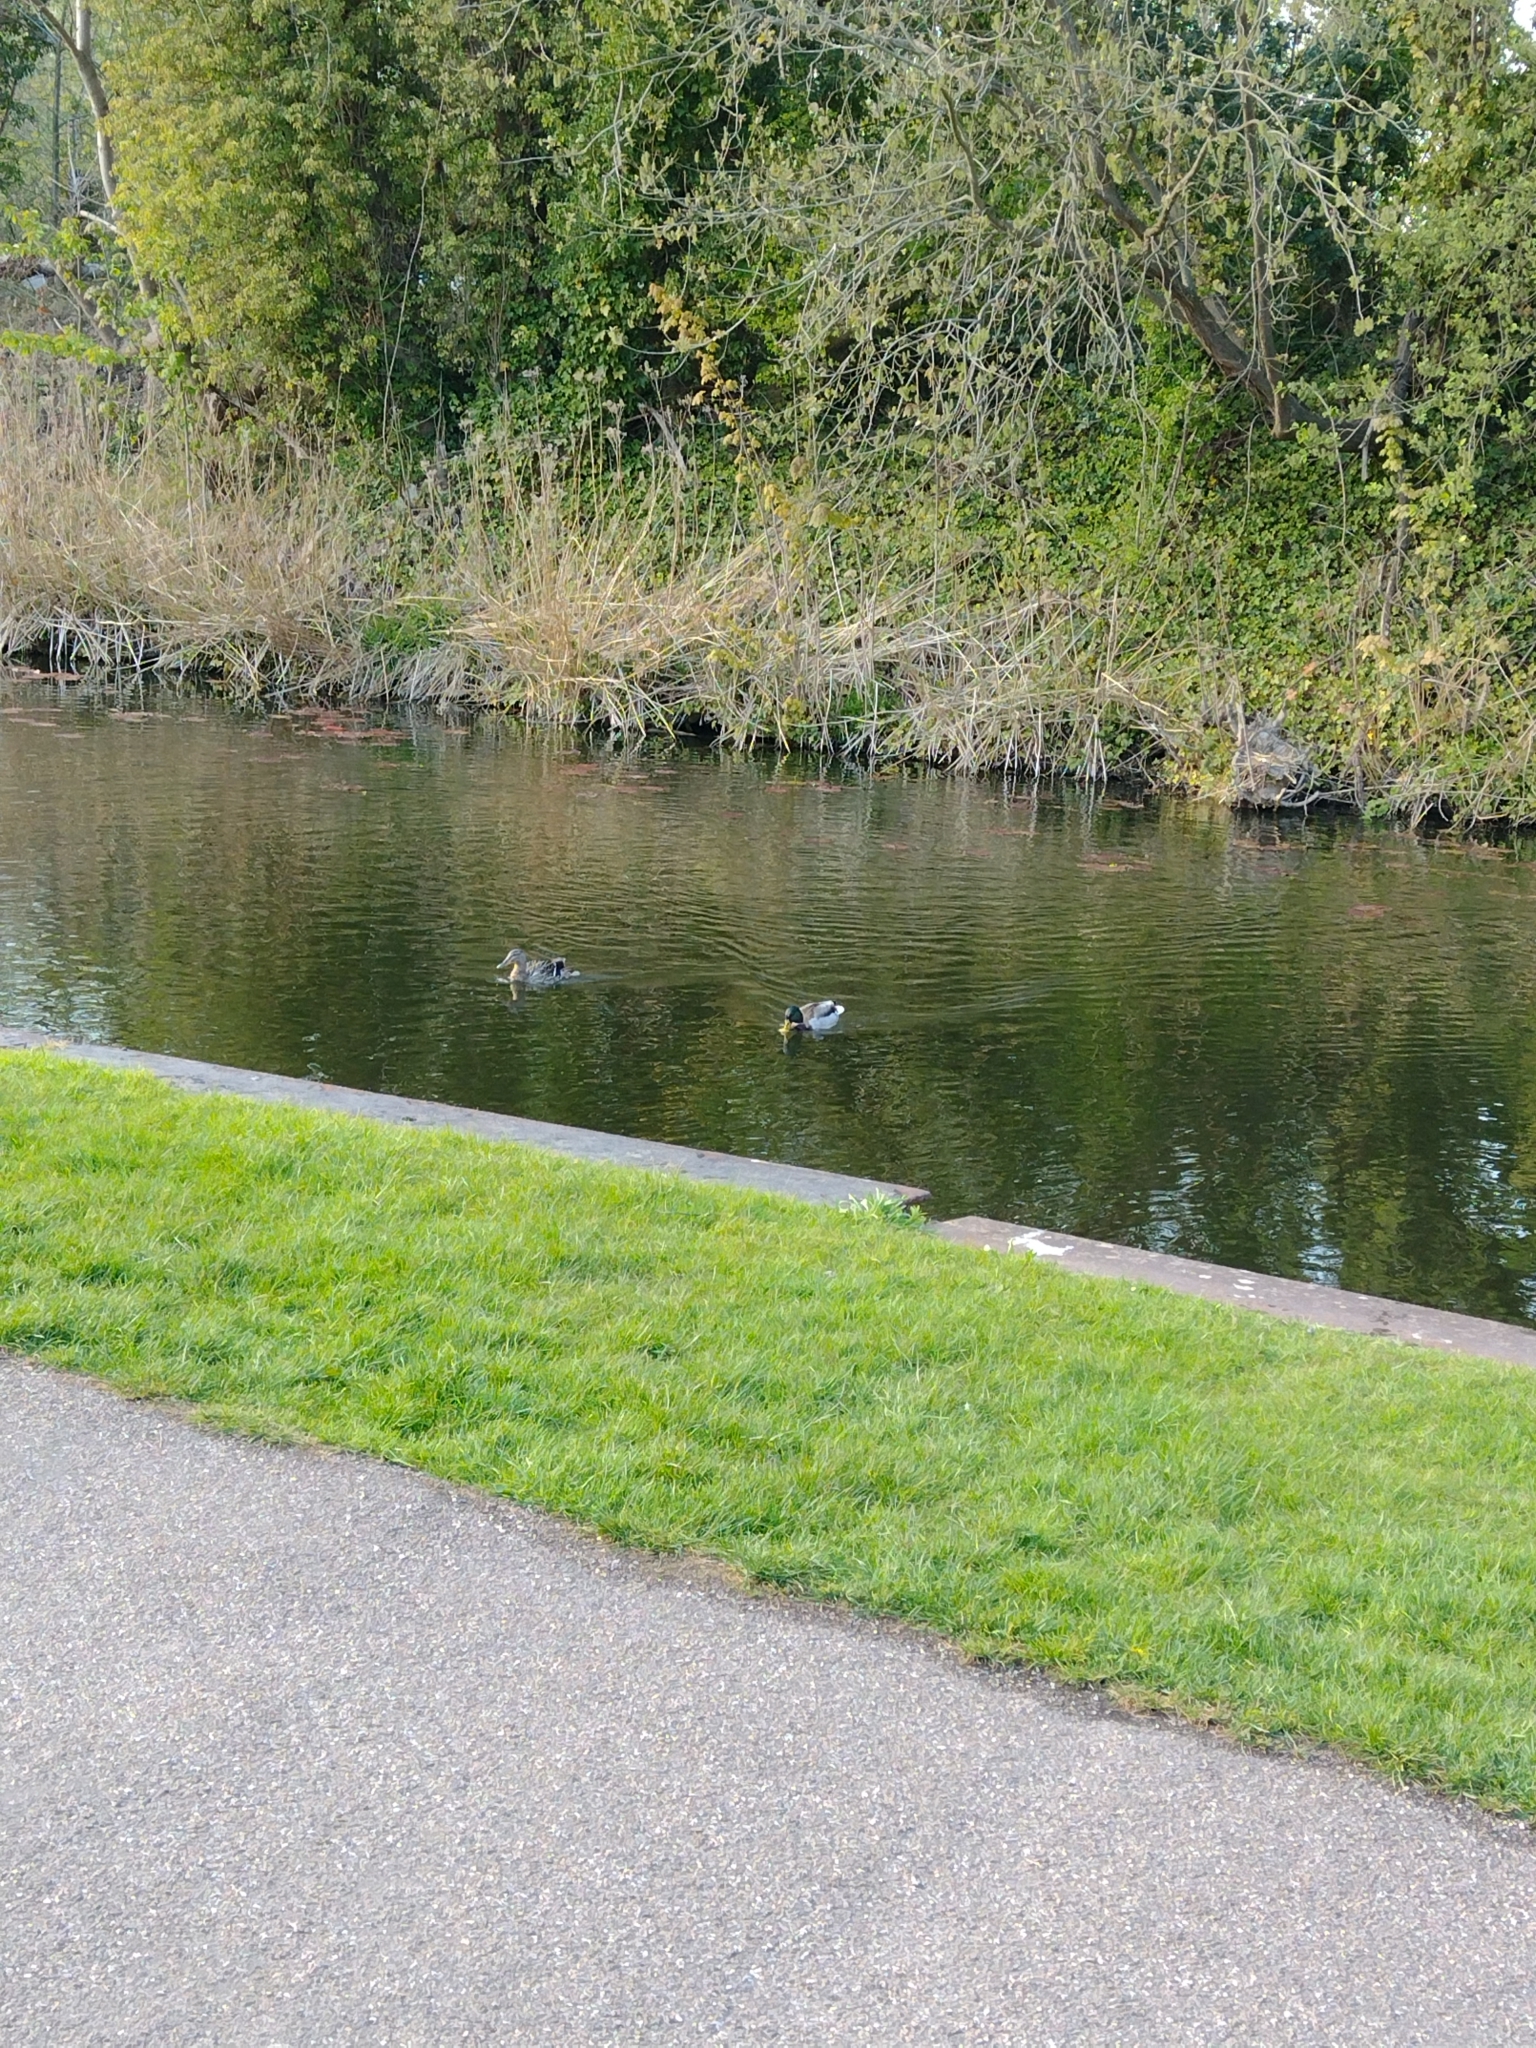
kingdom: Animalia
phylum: Chordata
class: Aves
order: Anseriformes
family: Anatidae
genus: Anas
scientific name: Anas platyrhynchos
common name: Mallard
